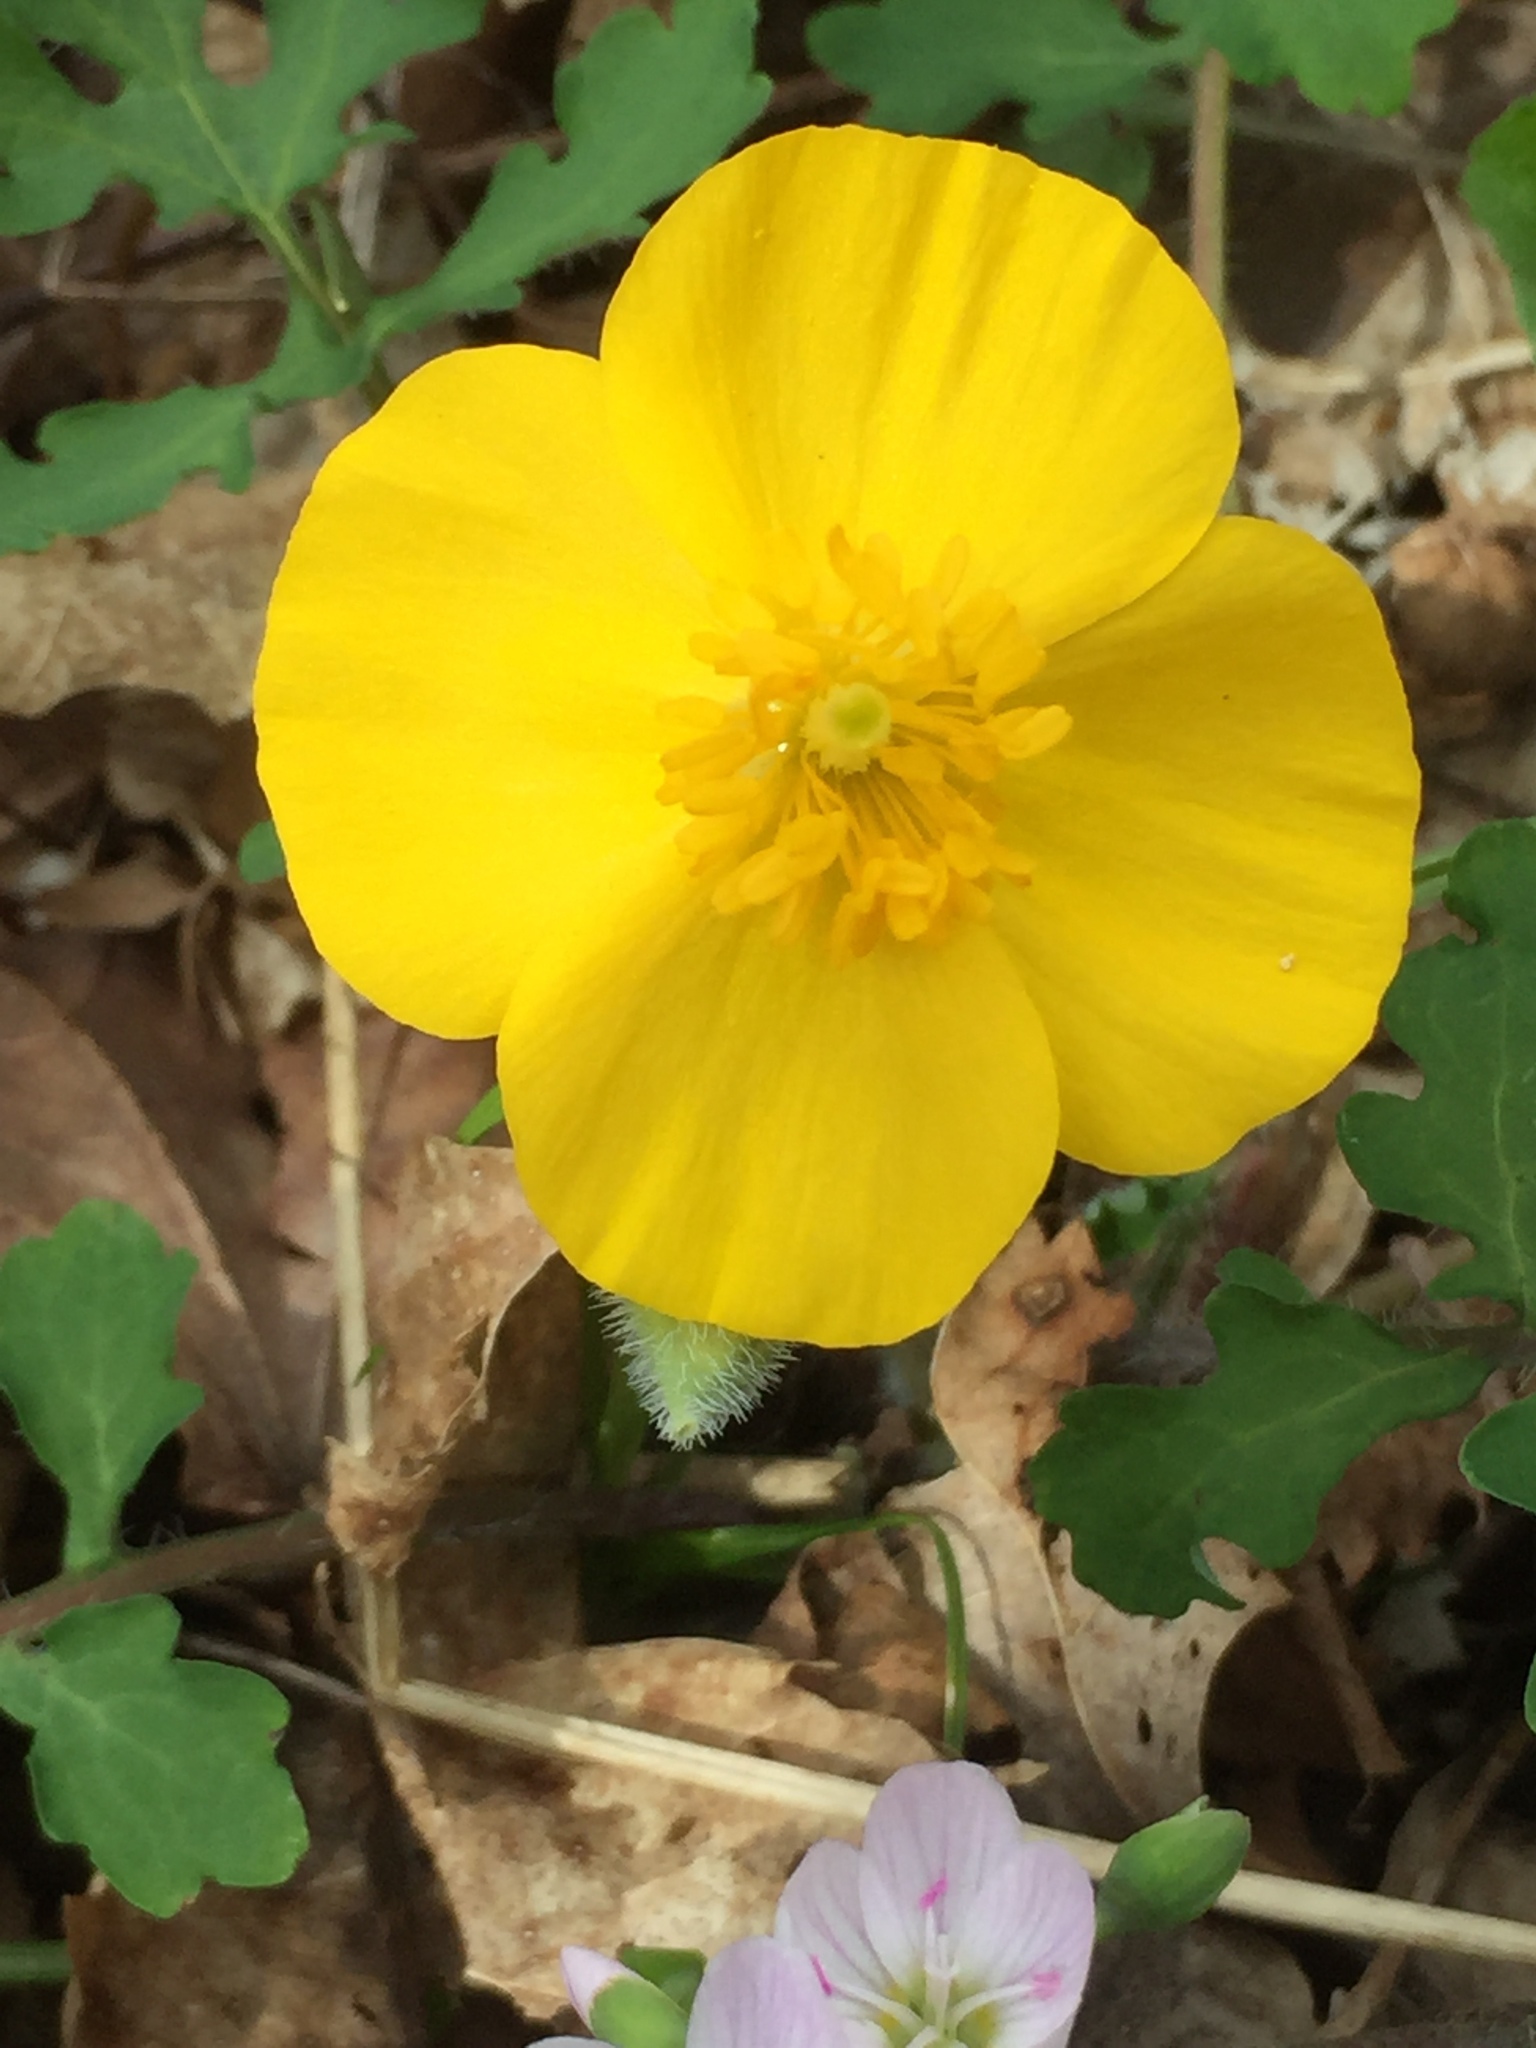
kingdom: Plantae
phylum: Tracheophyta
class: Magnoliopsida
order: Ranunculales
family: Papaveraceae
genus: Stylophorum
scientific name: Stylophorum diphyllum
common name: Celandine poppy
